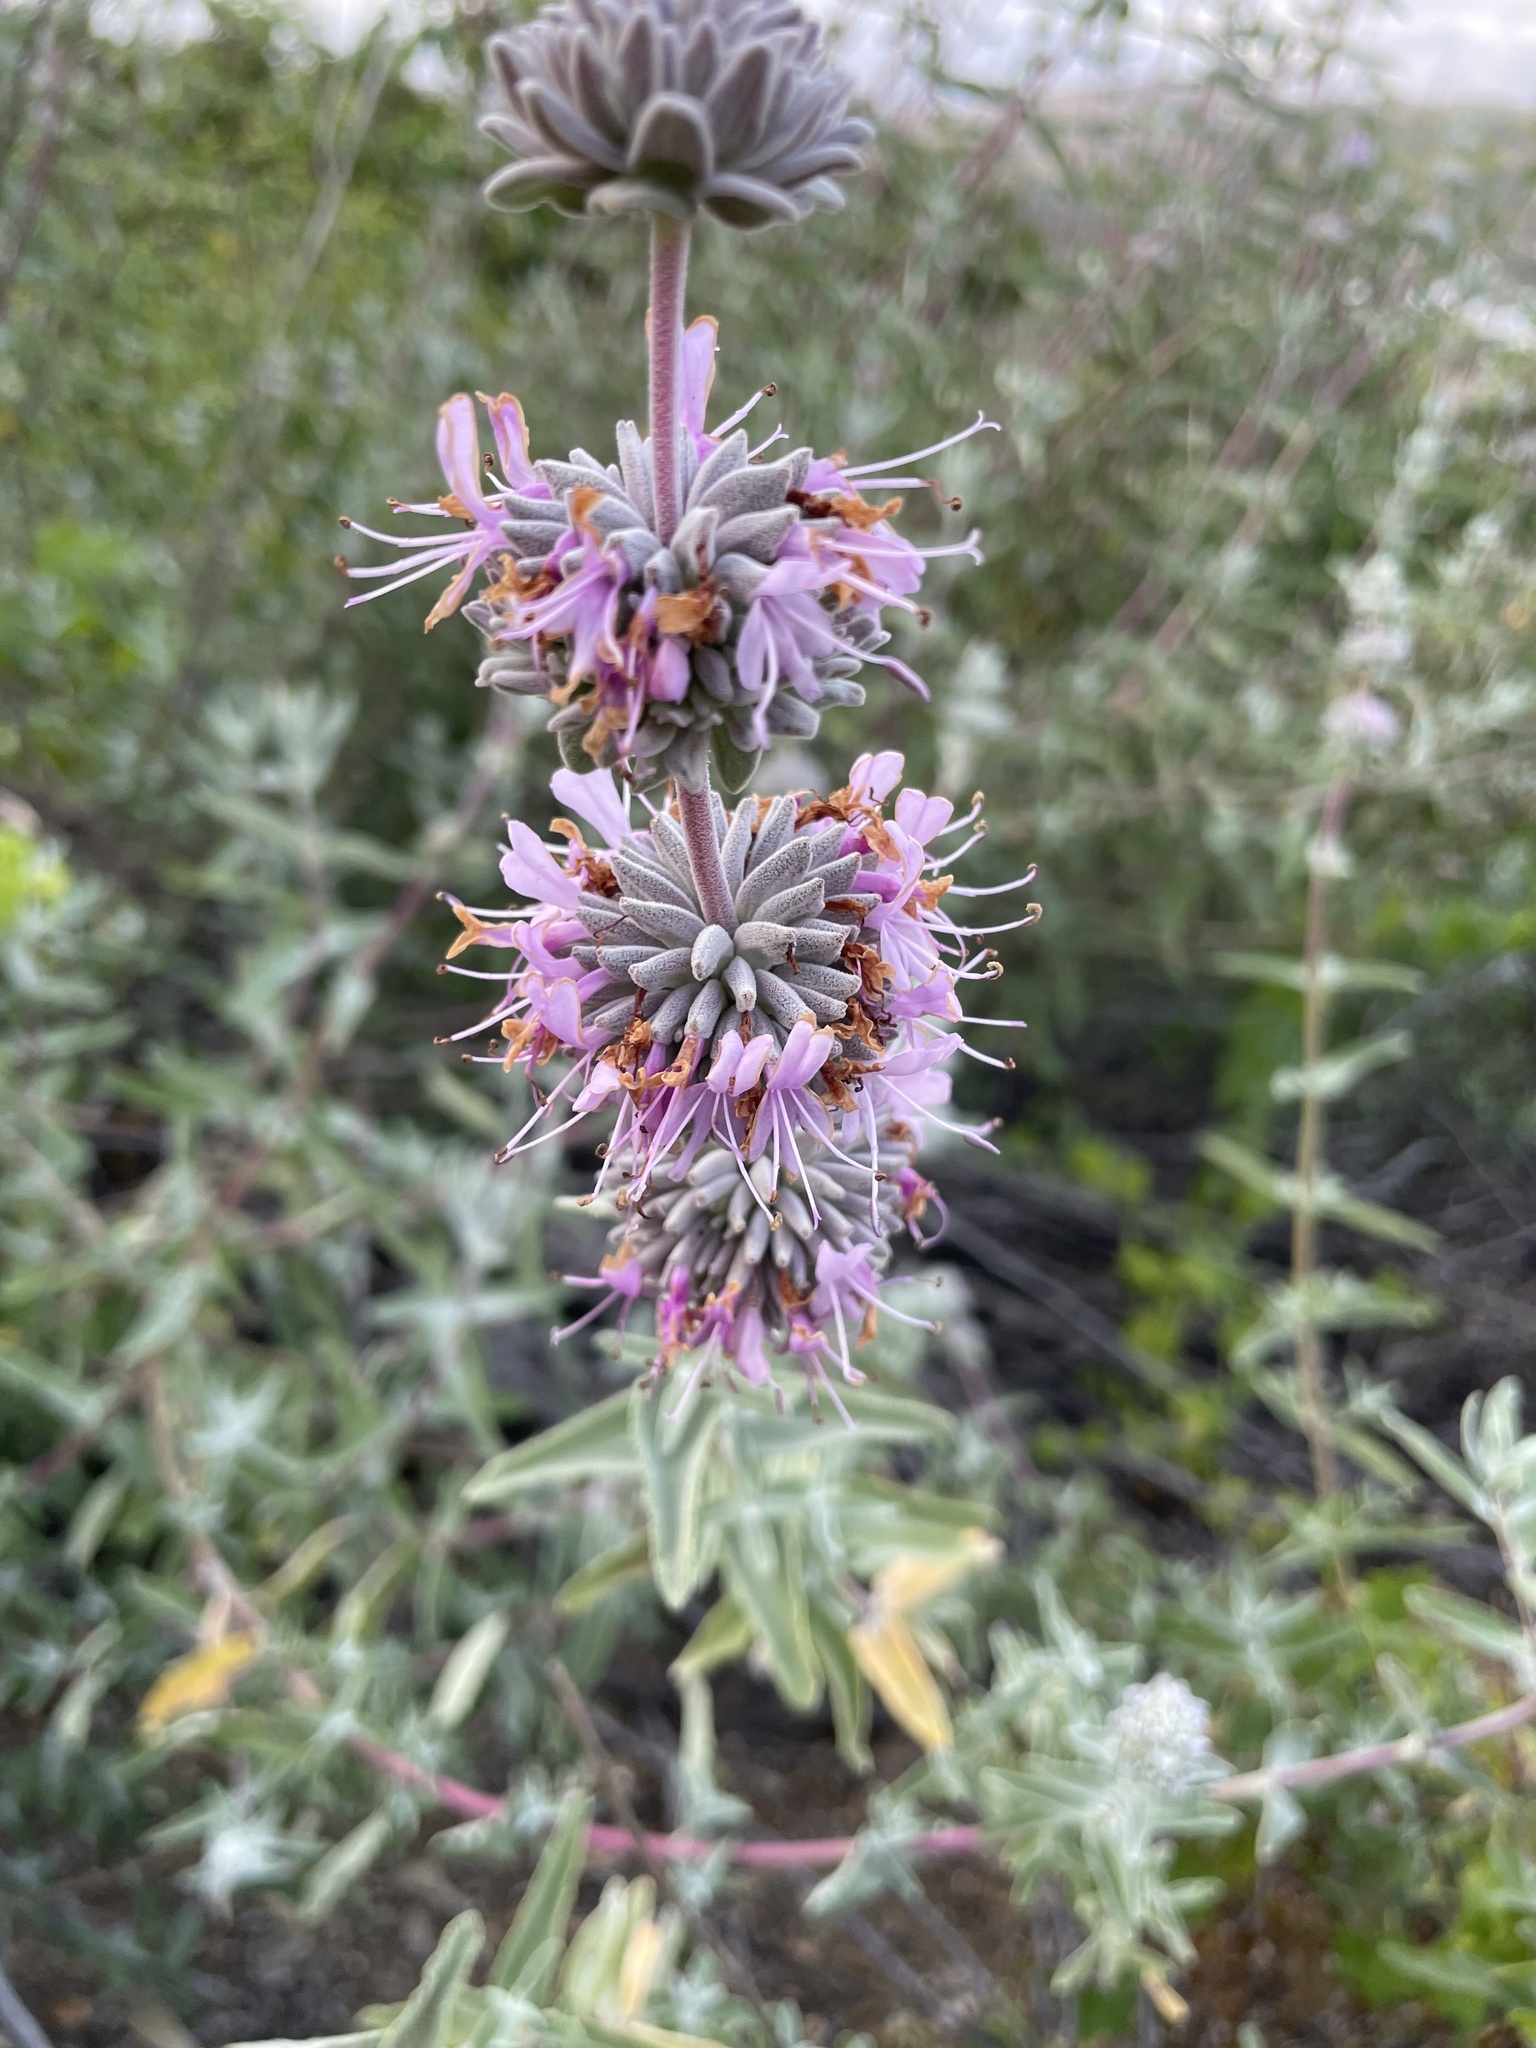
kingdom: Plantae
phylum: Tracheophyta
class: Magnoliopsida
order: Lamiales
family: Lamiaceae
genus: Salvia
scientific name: Salvia leucophylla
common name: Purple sage
